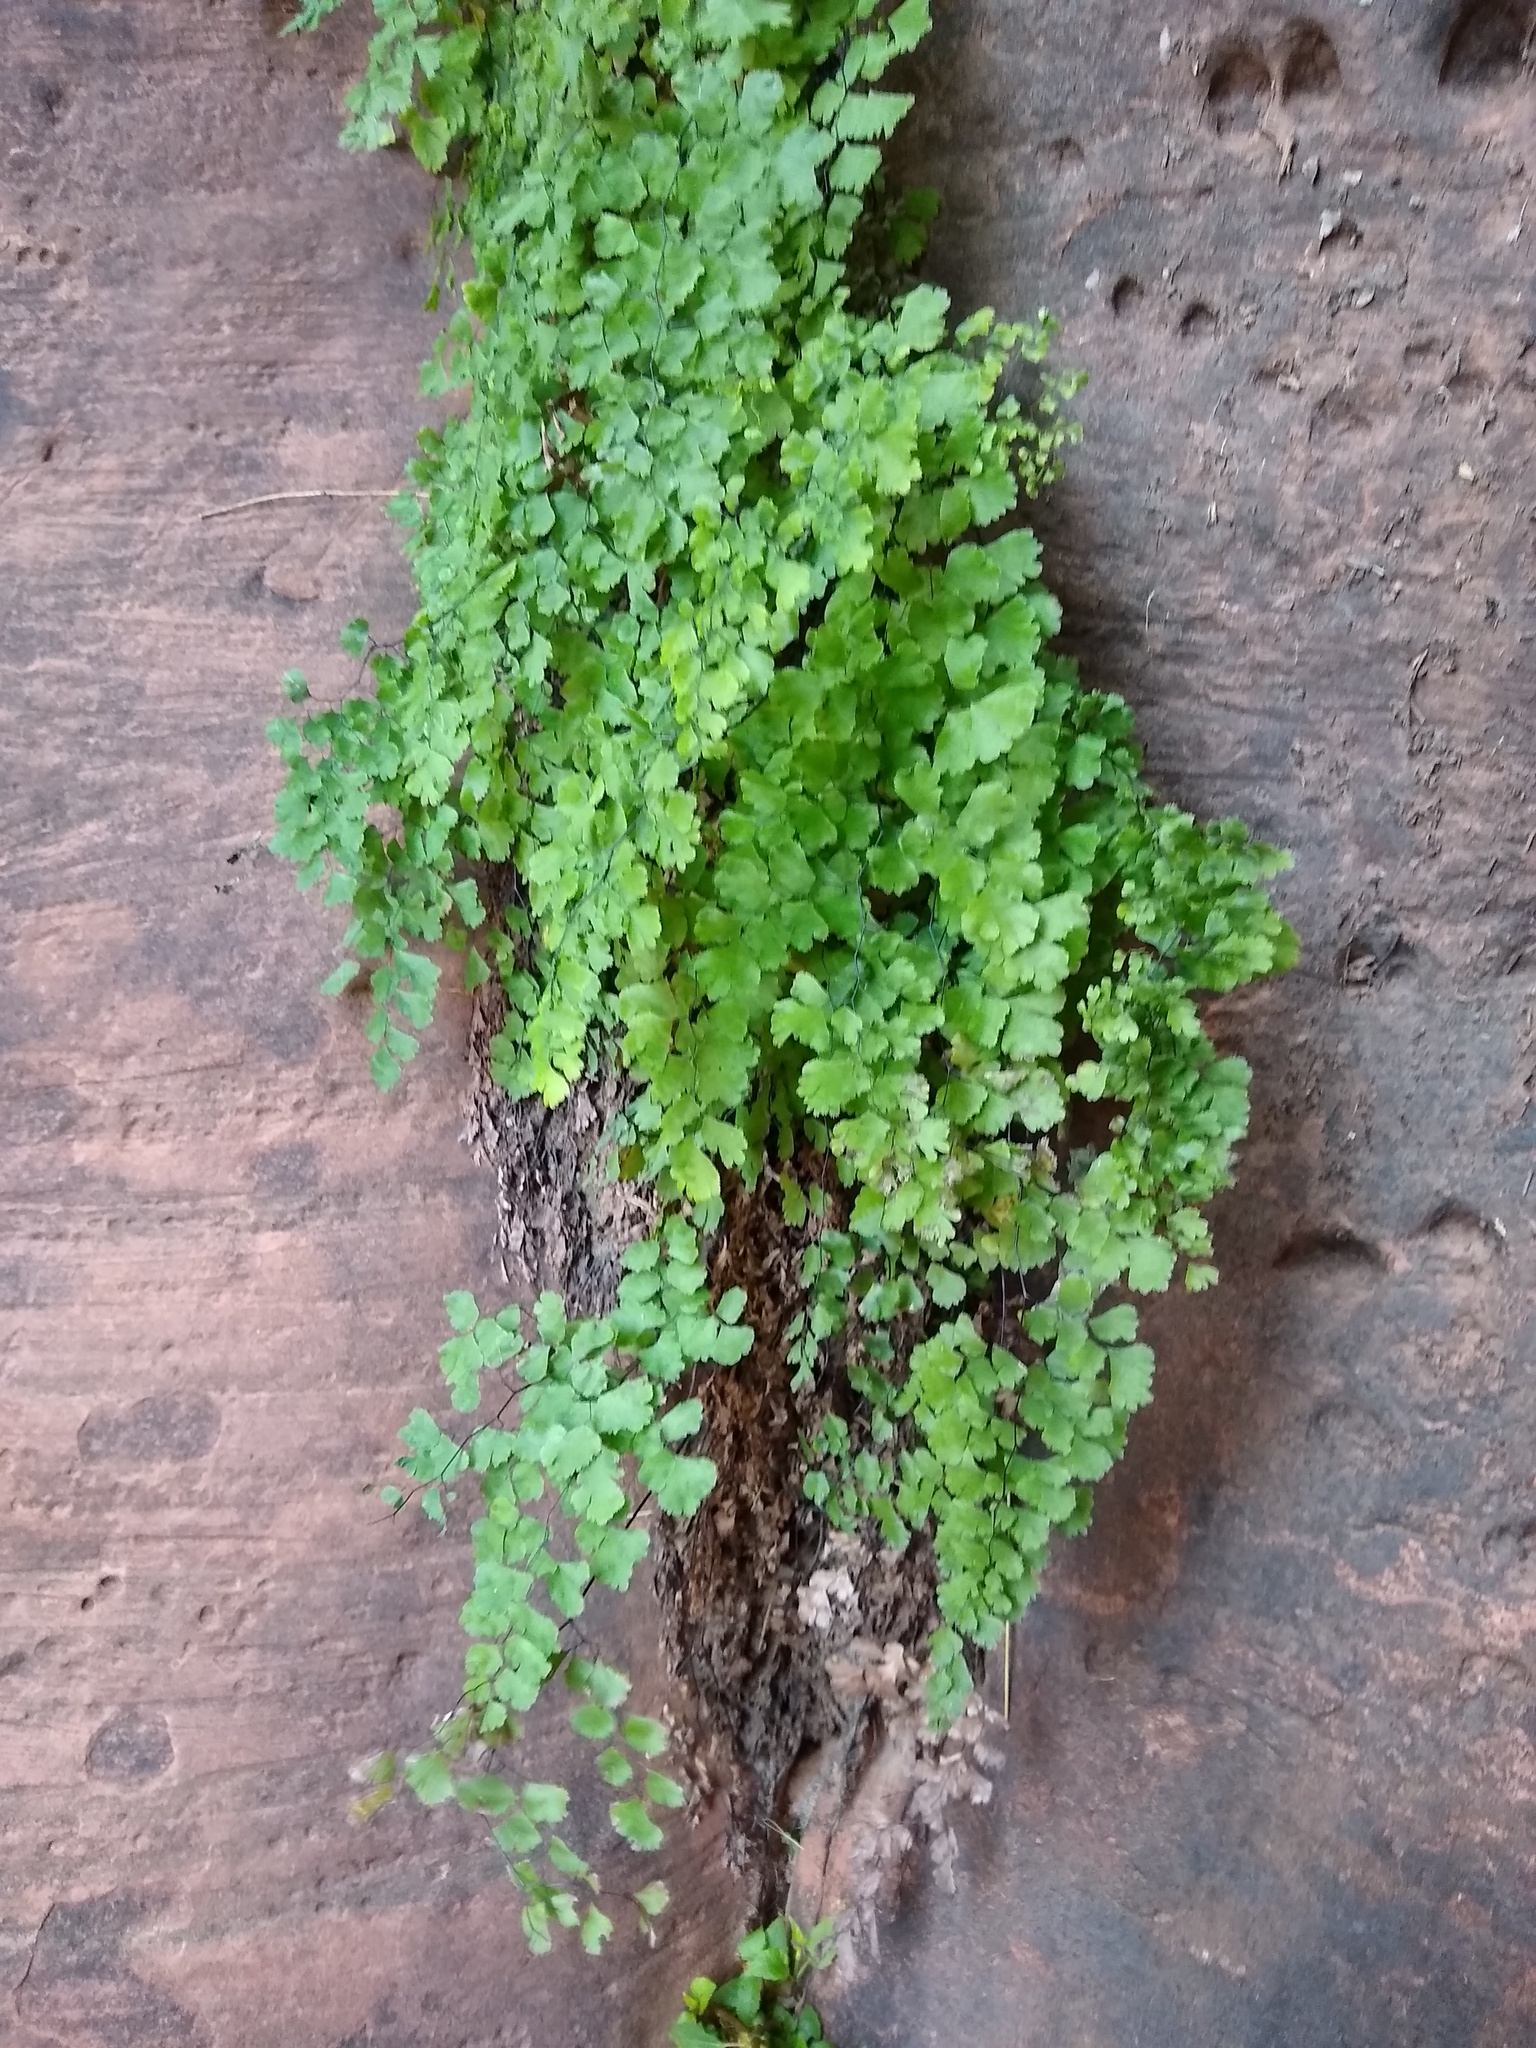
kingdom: Plantae
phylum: Tracheophyta
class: Polypodiopsida
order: Polypodiales
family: Pteridaceae
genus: Adiantum
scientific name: Adiantum capillus-veneris
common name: Maidenhair fern
